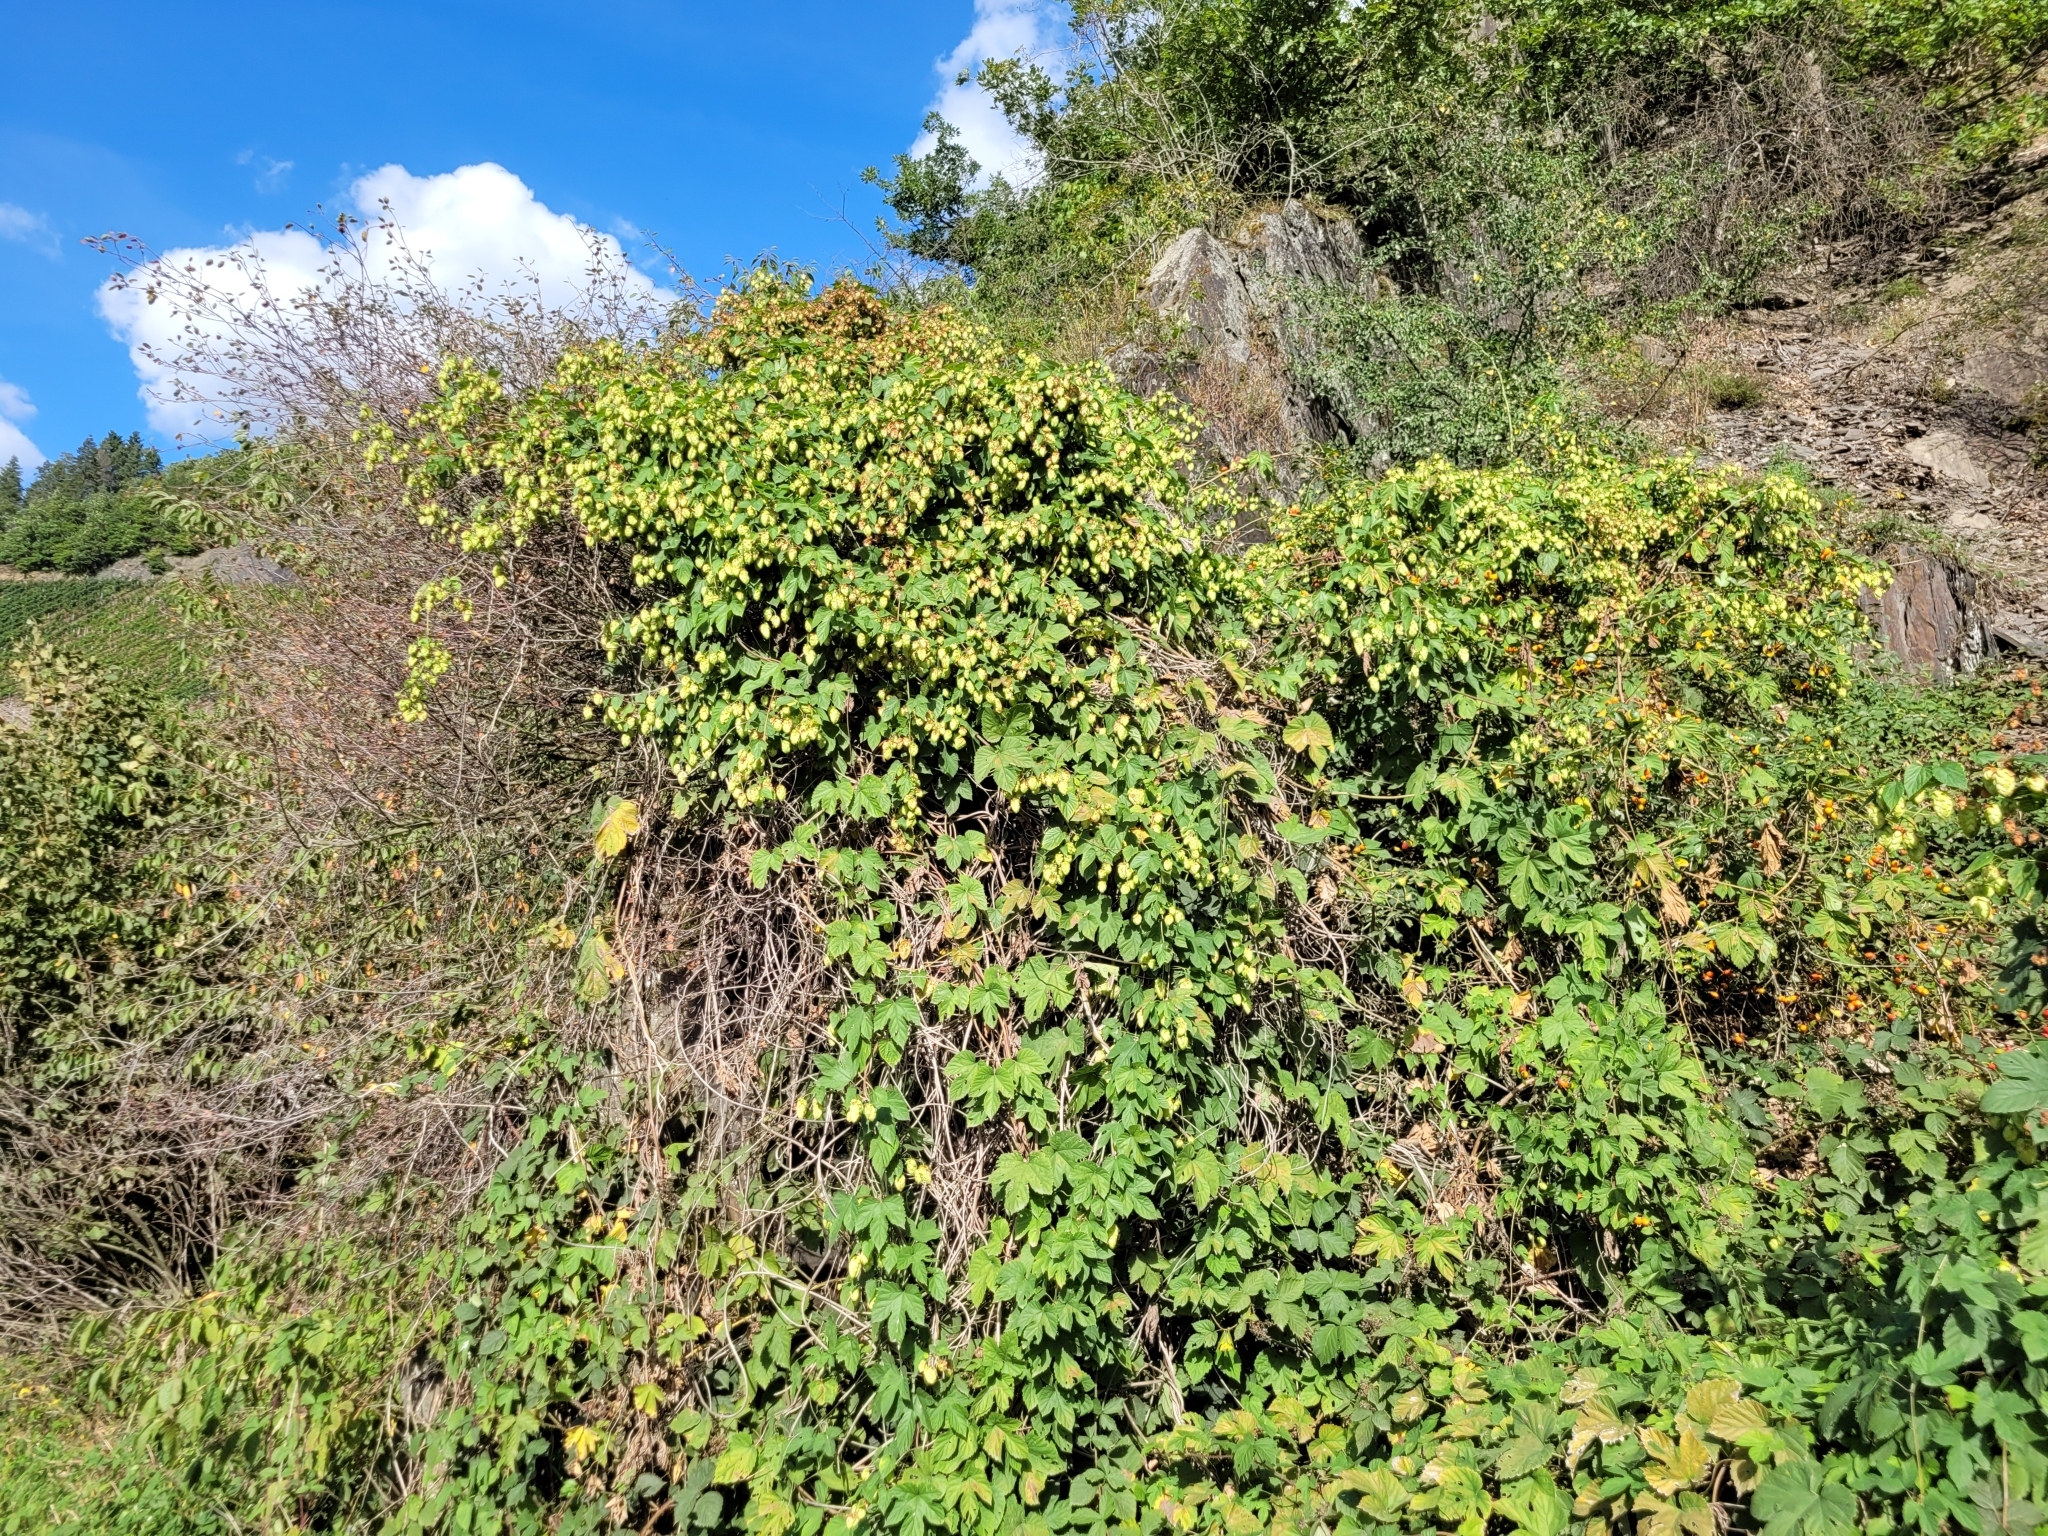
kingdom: Plantae
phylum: Tracheophyta
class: Magnoliopsida
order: Rosales
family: Cannabaceae
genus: Humulus
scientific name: Humulus lupulus
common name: Hop
